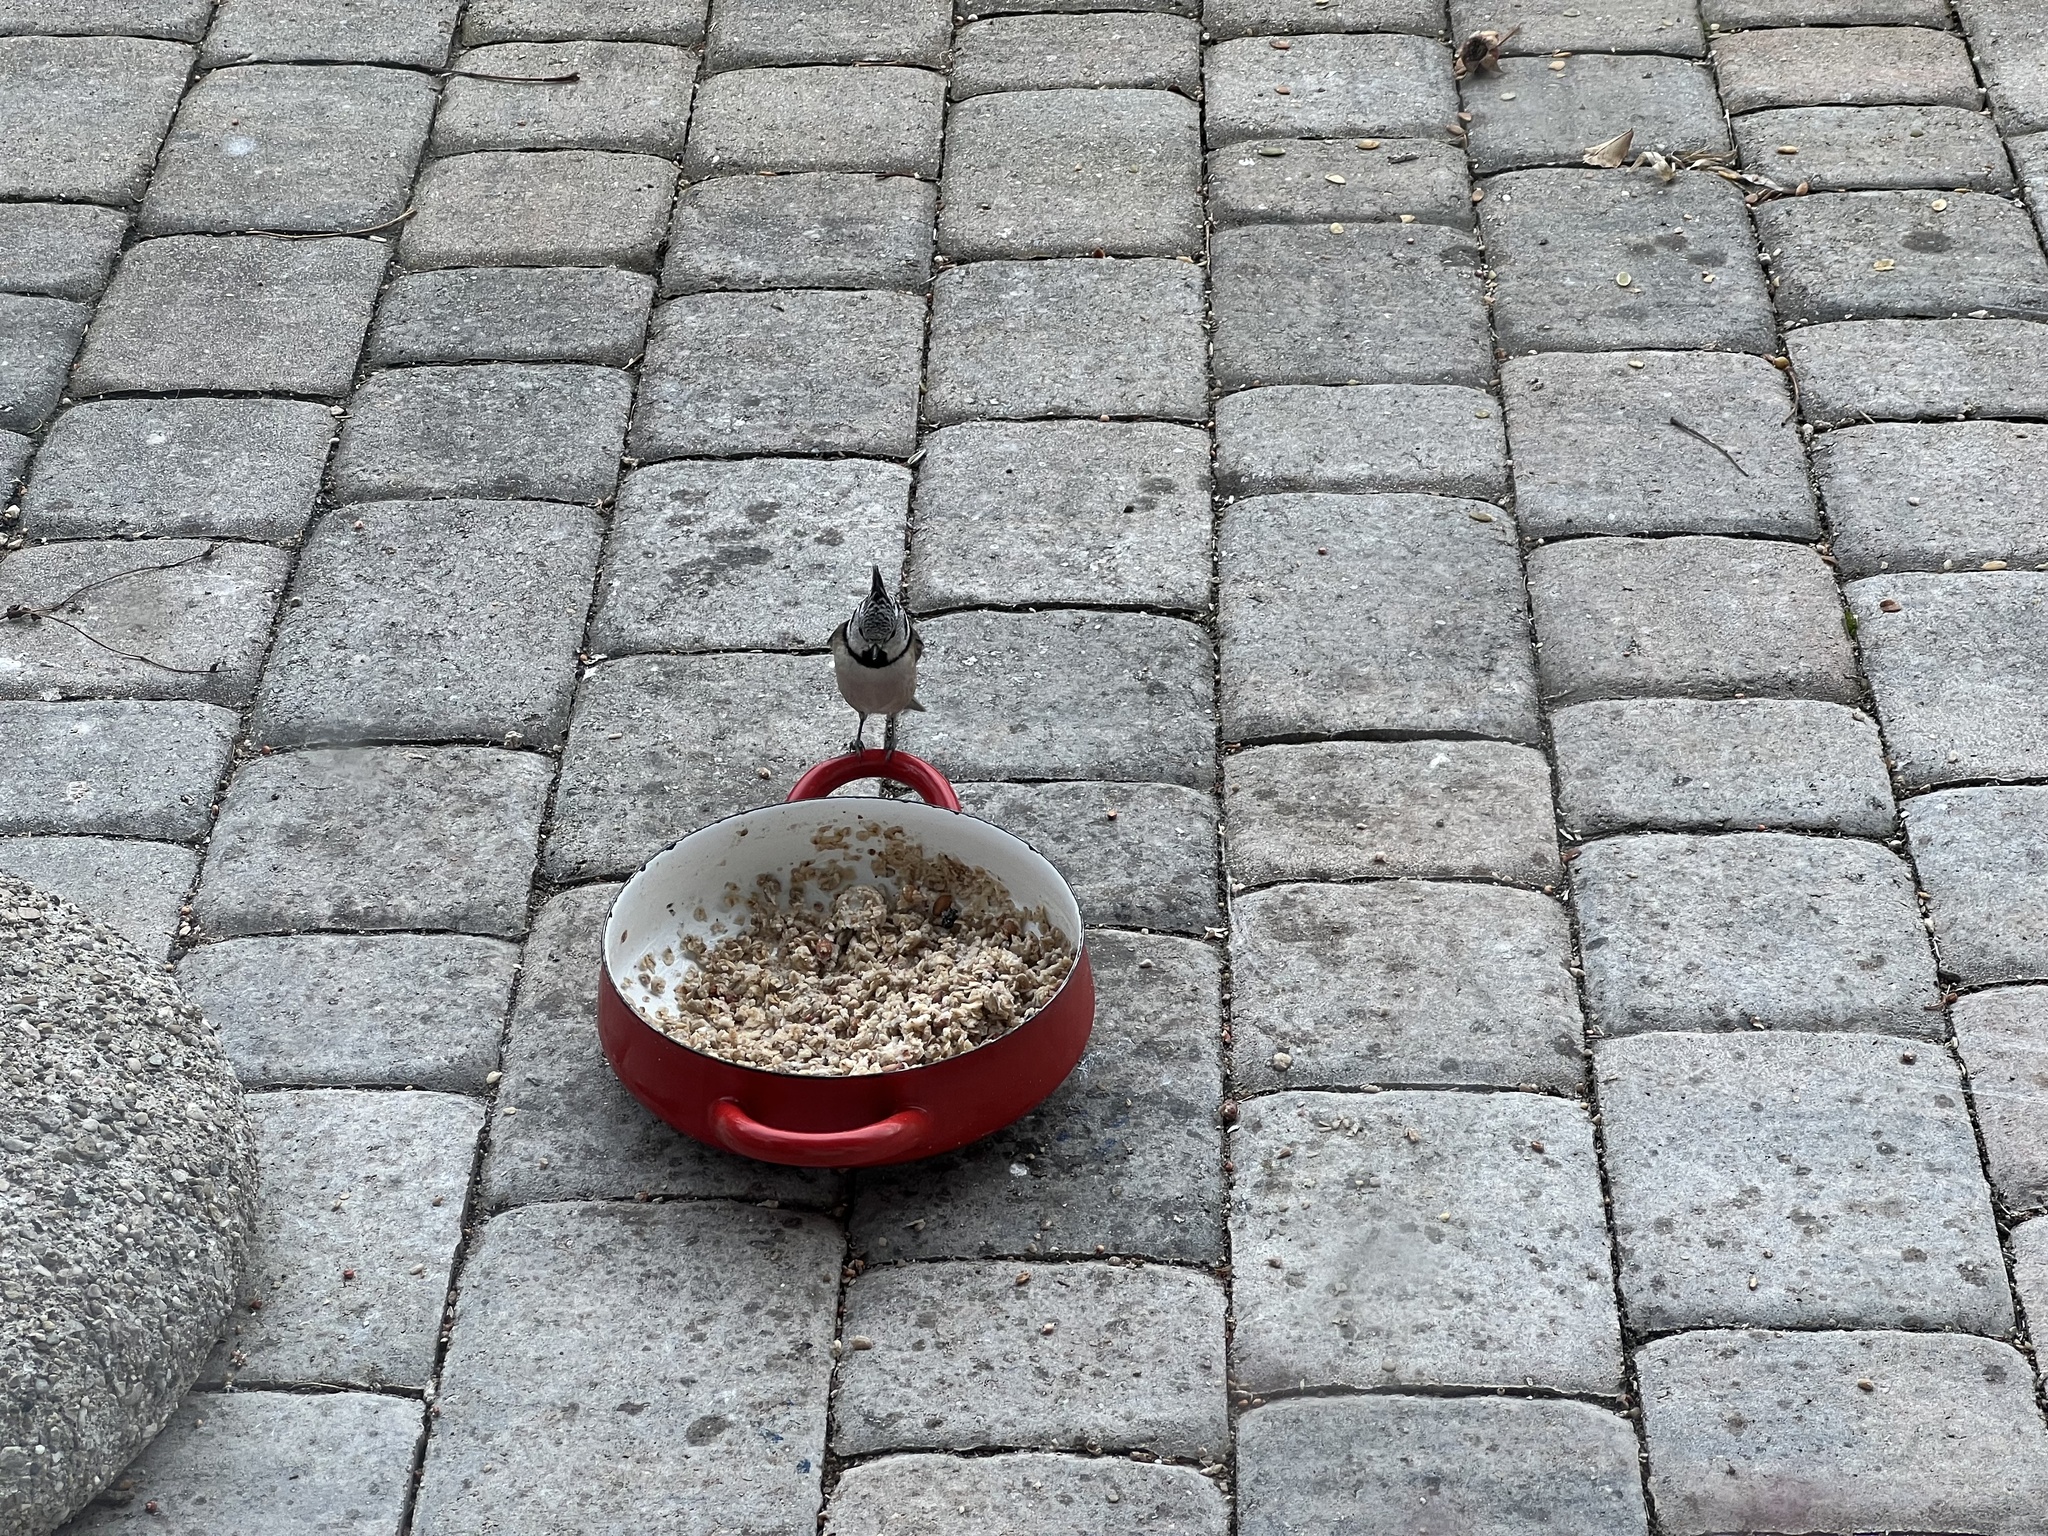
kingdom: Animalia
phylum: Chordata
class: Aves
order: Passeriformes
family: Paridae
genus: Lophophanes
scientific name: Lophophanes cristatus
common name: European crested tit
